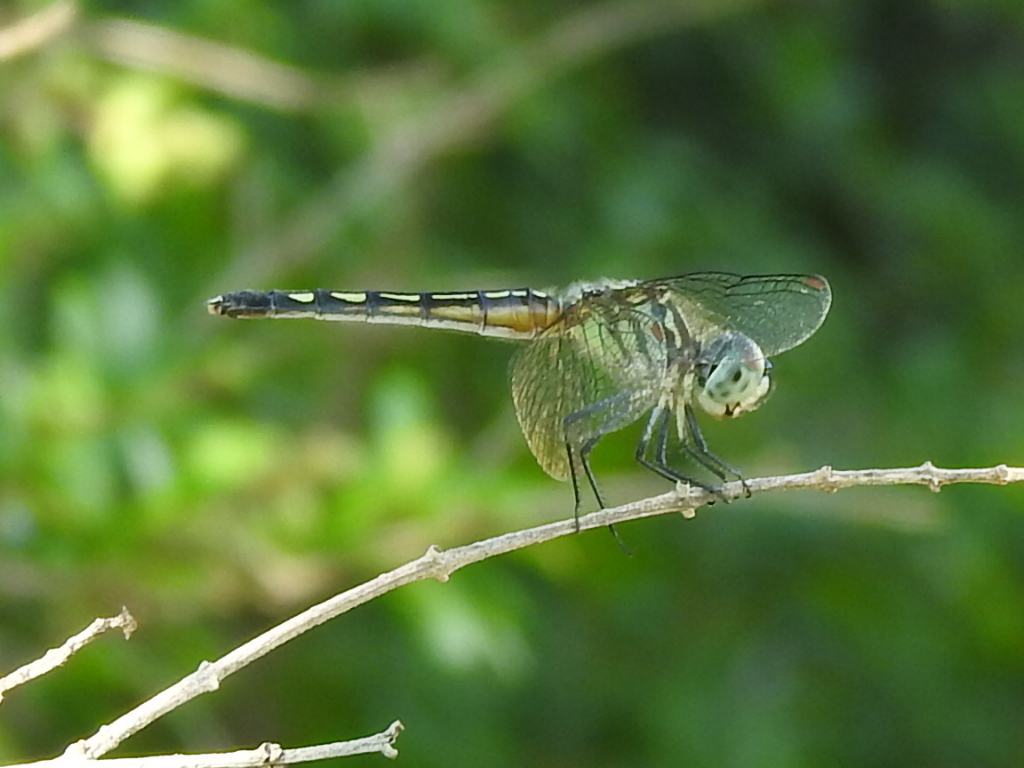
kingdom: Animalia
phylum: Arthropoda
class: Insecta
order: Odonata
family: Libellulidae
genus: Pachydiplax
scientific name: Pachydiplax longipennis
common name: Blue dasher
